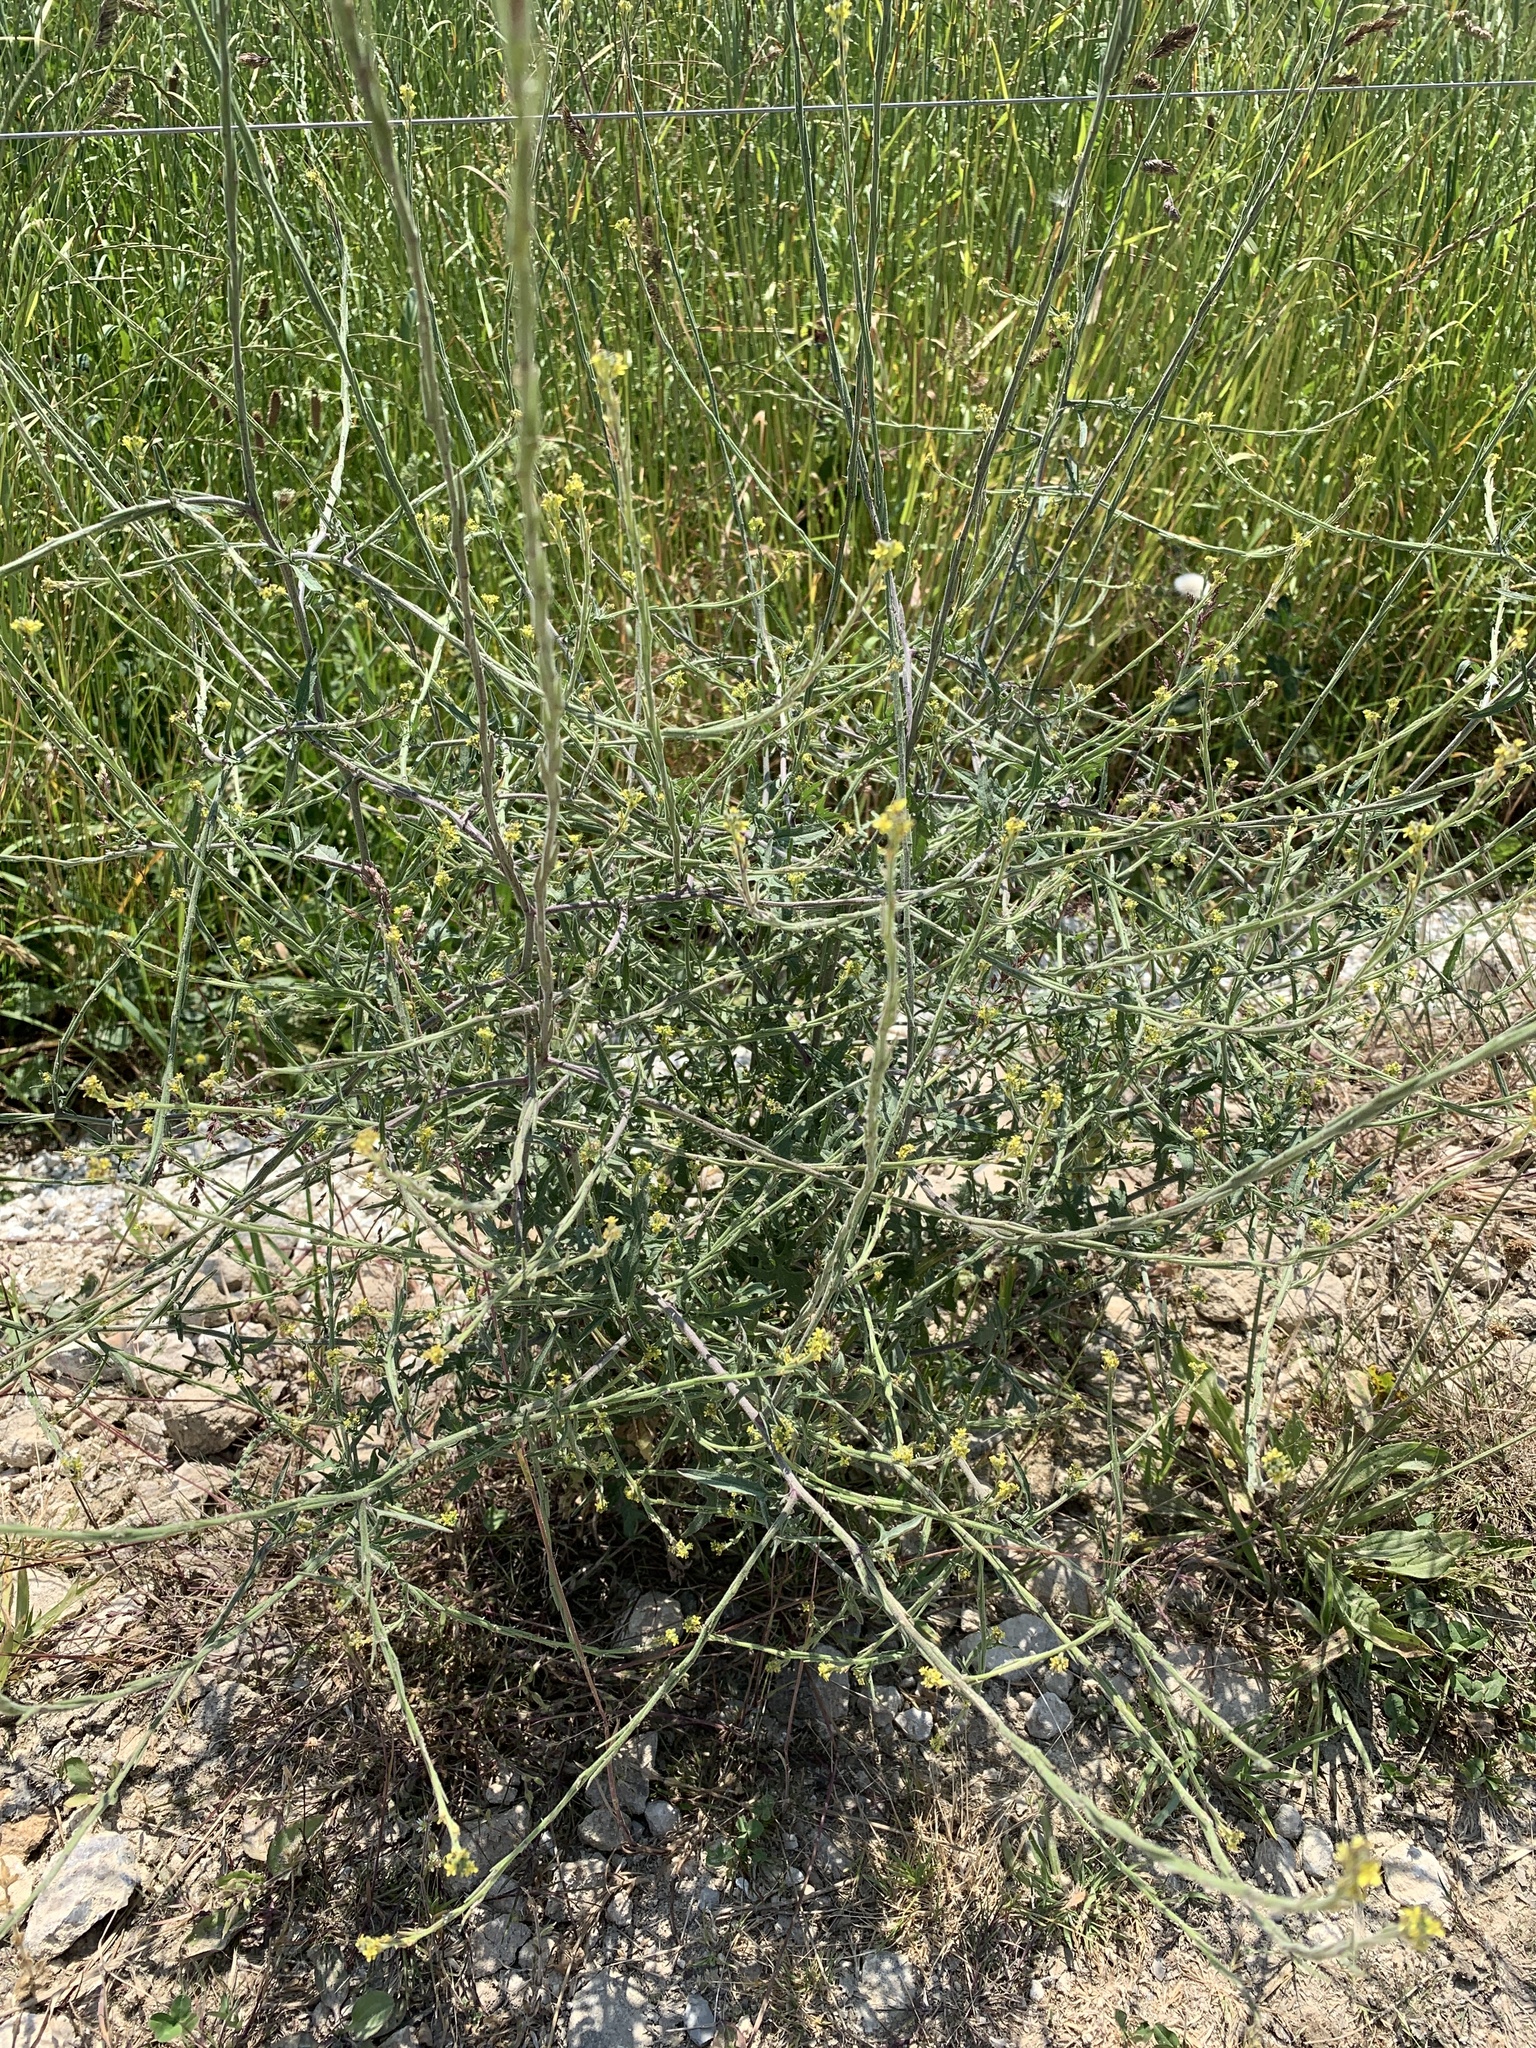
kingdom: Plantae
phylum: Tracheophyta
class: Magnoliopsida
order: Brassicales
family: Brassicaceae
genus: Sisymbrium
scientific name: Sisymbrium officinale
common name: Hedge mustard
